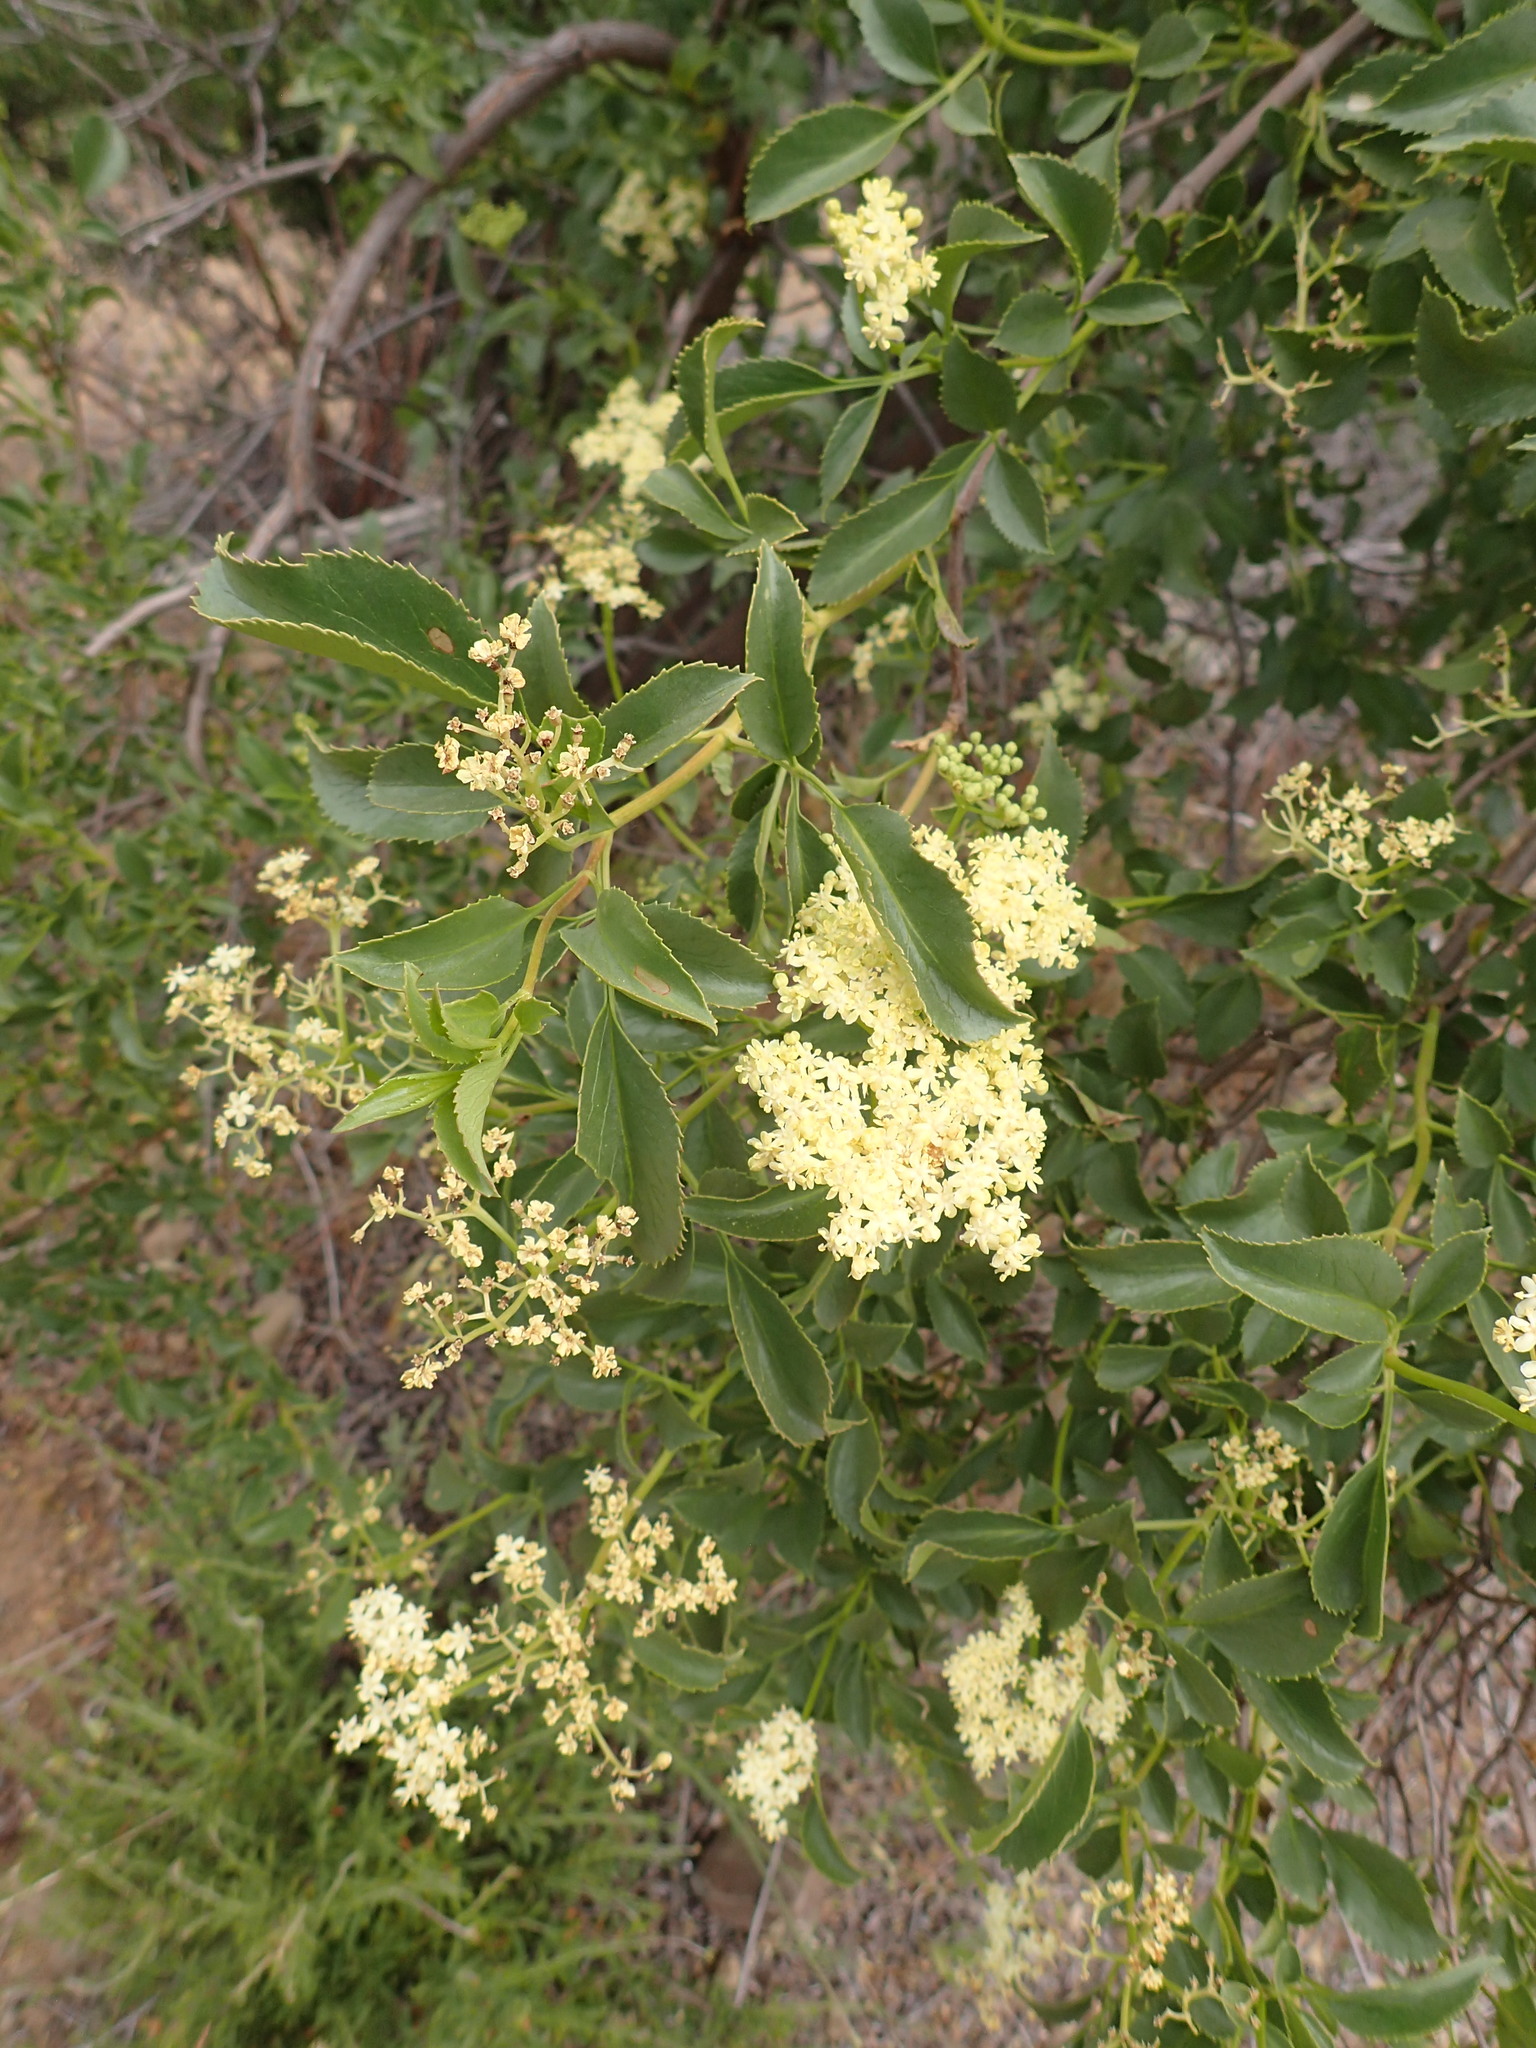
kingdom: Plantae
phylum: Tracheophyta
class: Magnoliopsida
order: Dipsacales
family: Viburnaceae
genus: Sambucus
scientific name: Sambucus cerulea
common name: Blue elder
